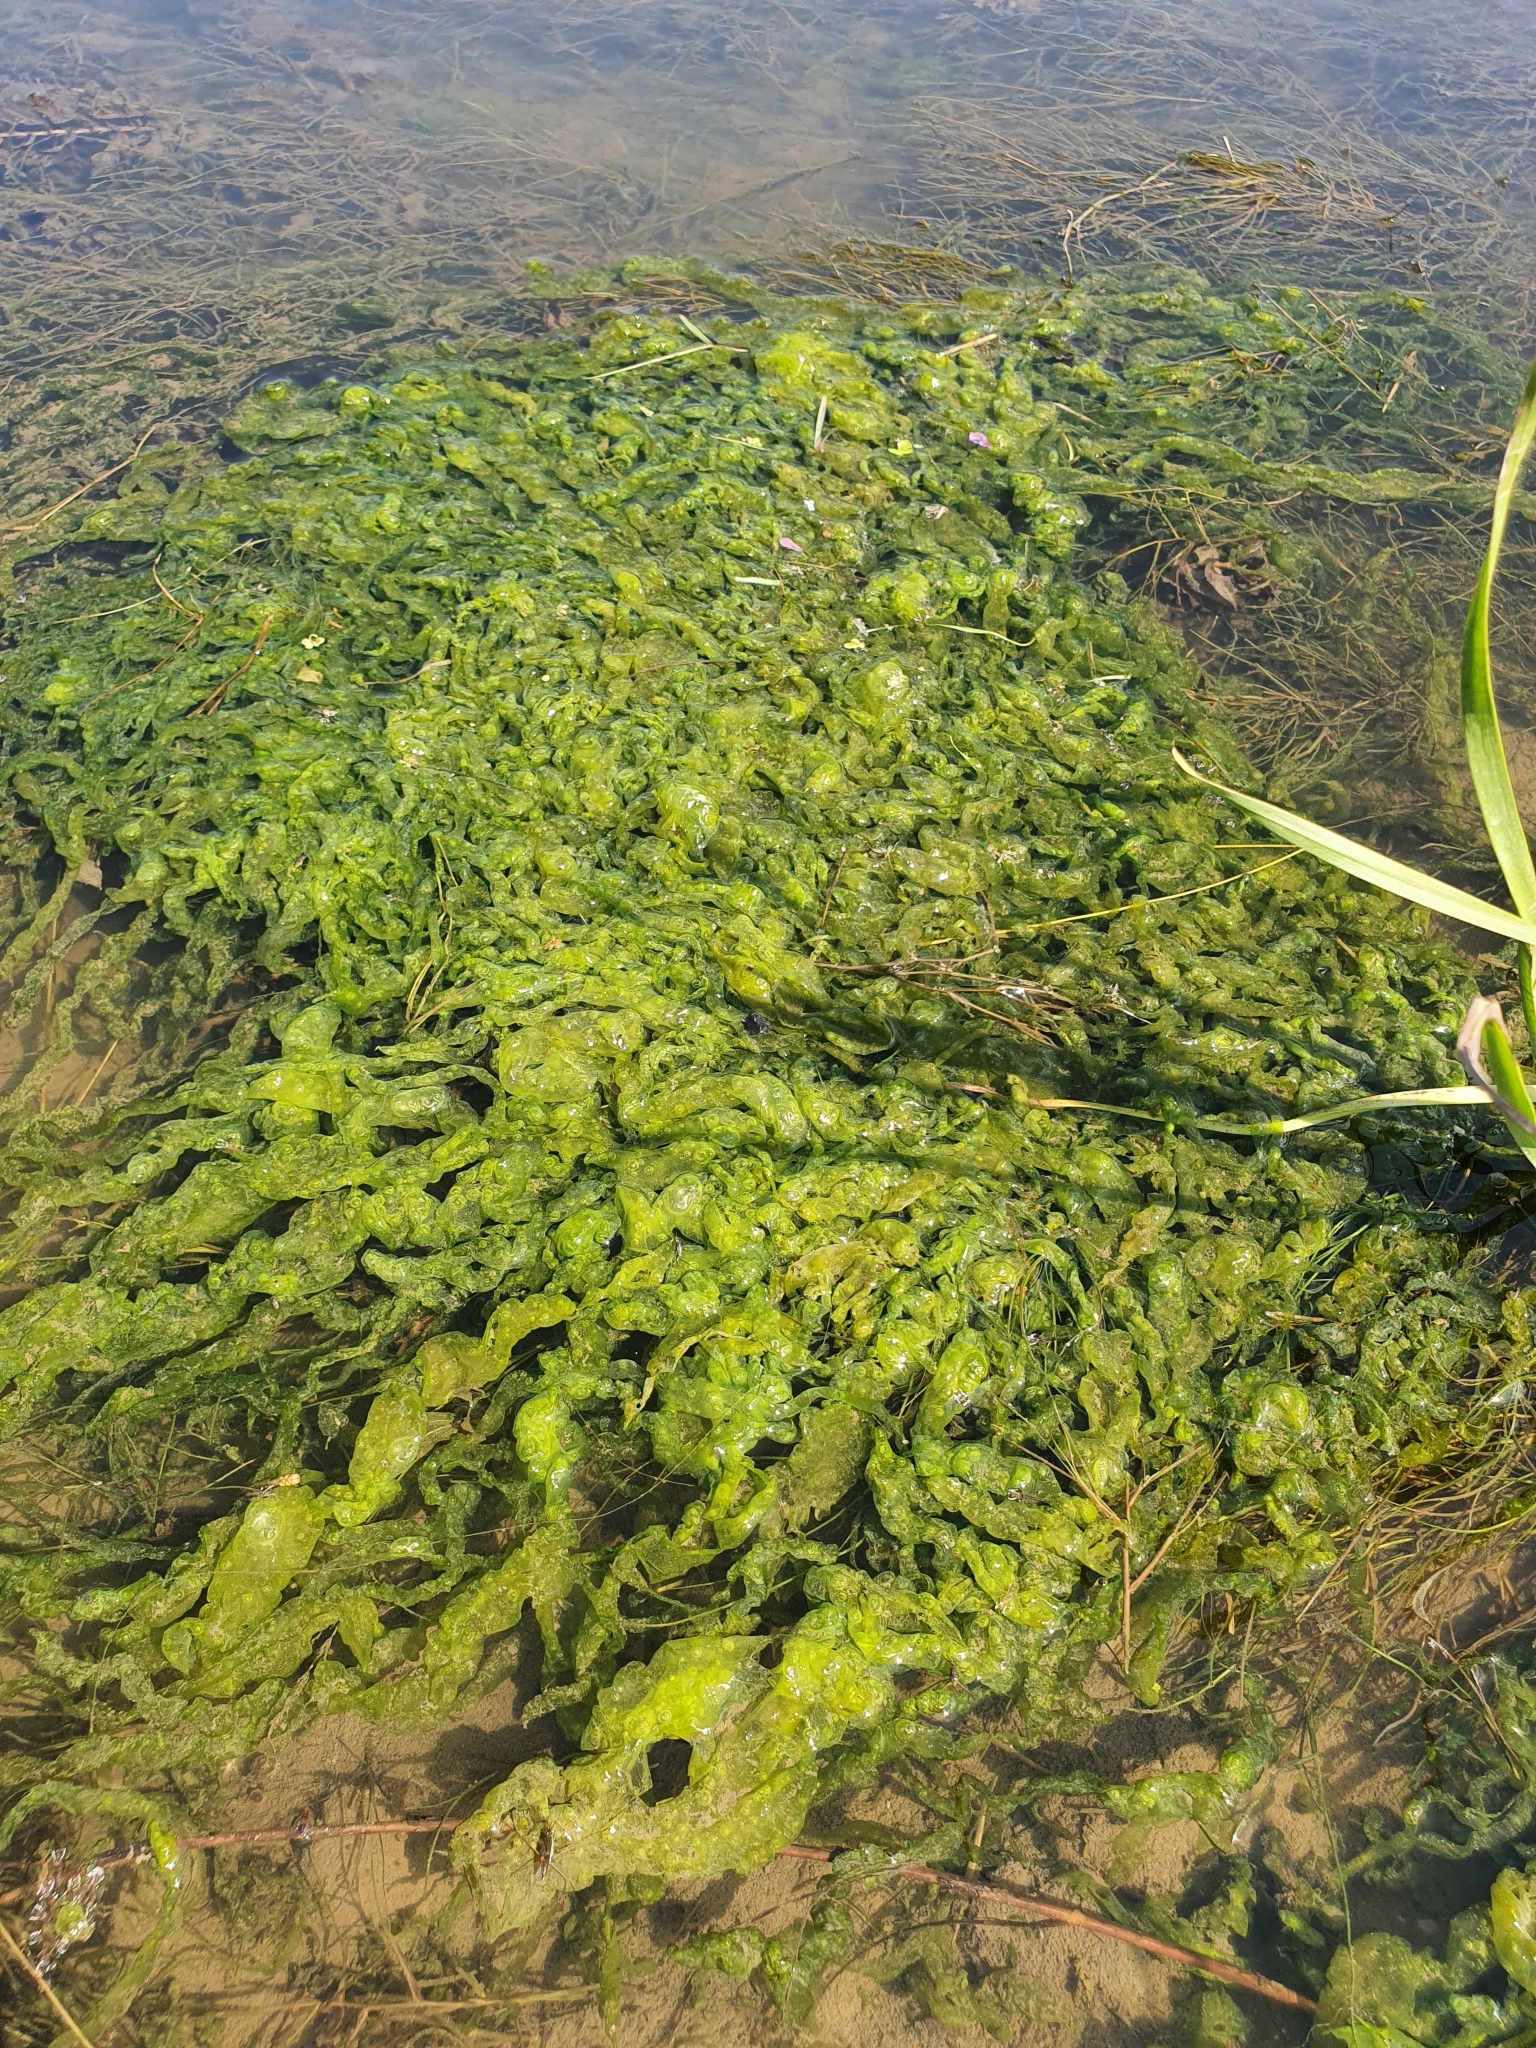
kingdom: Plantae
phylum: Chlorophyta
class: Ulvophyceae
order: Ulvales
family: Ulvaceae
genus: Ulva
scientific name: Ulva intestinalis
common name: Gut weed
